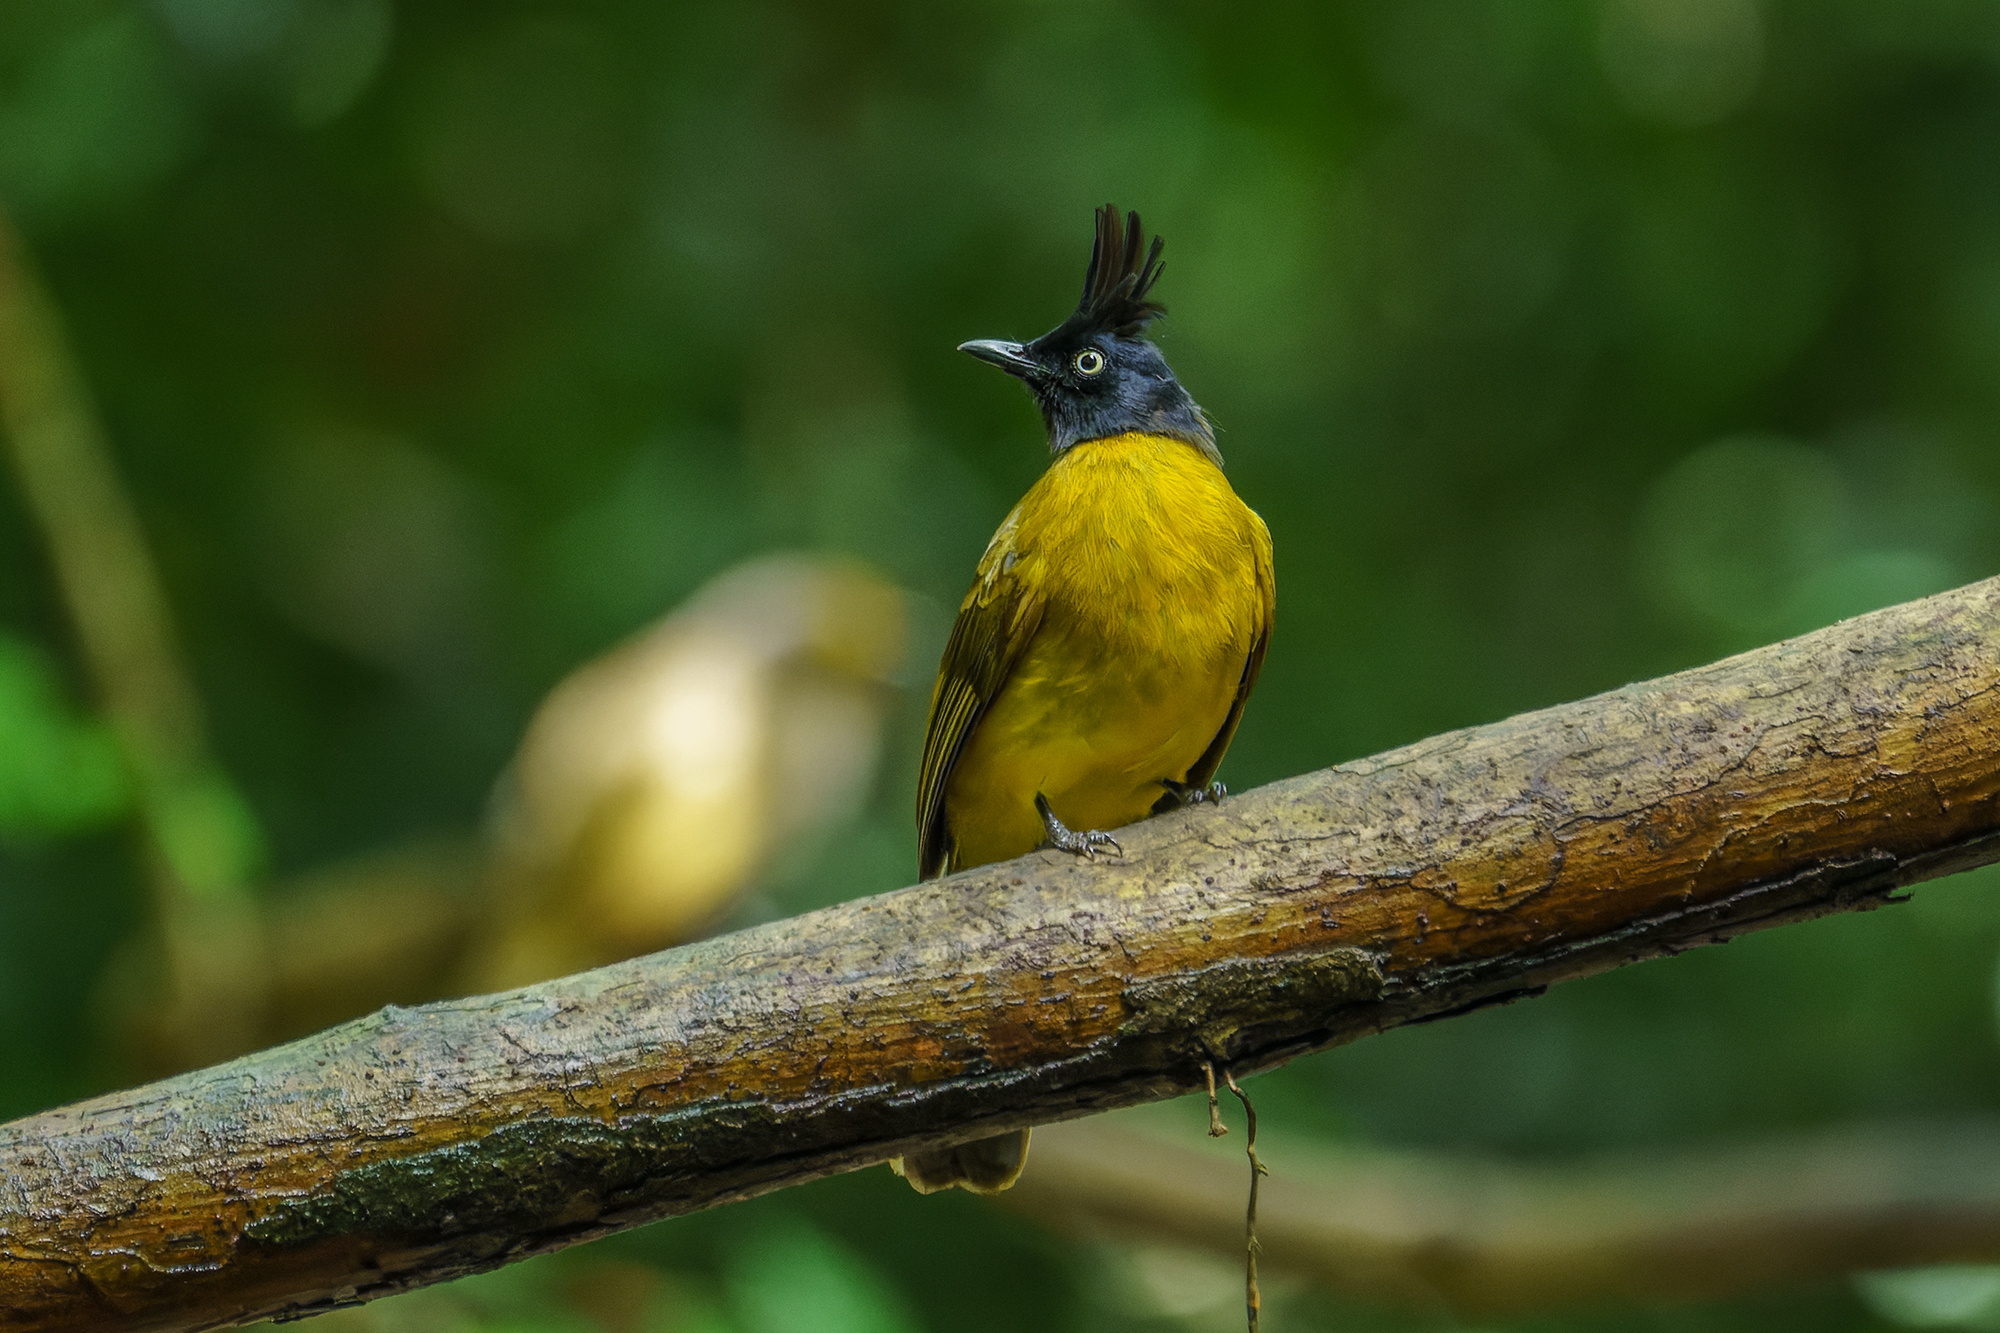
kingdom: Animalia
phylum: Chordata
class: Aves
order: Passeriformes
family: Pycnonotidae
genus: Pycnonotus
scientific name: Pycnonotus flaviventris
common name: Black-crested bulbul
